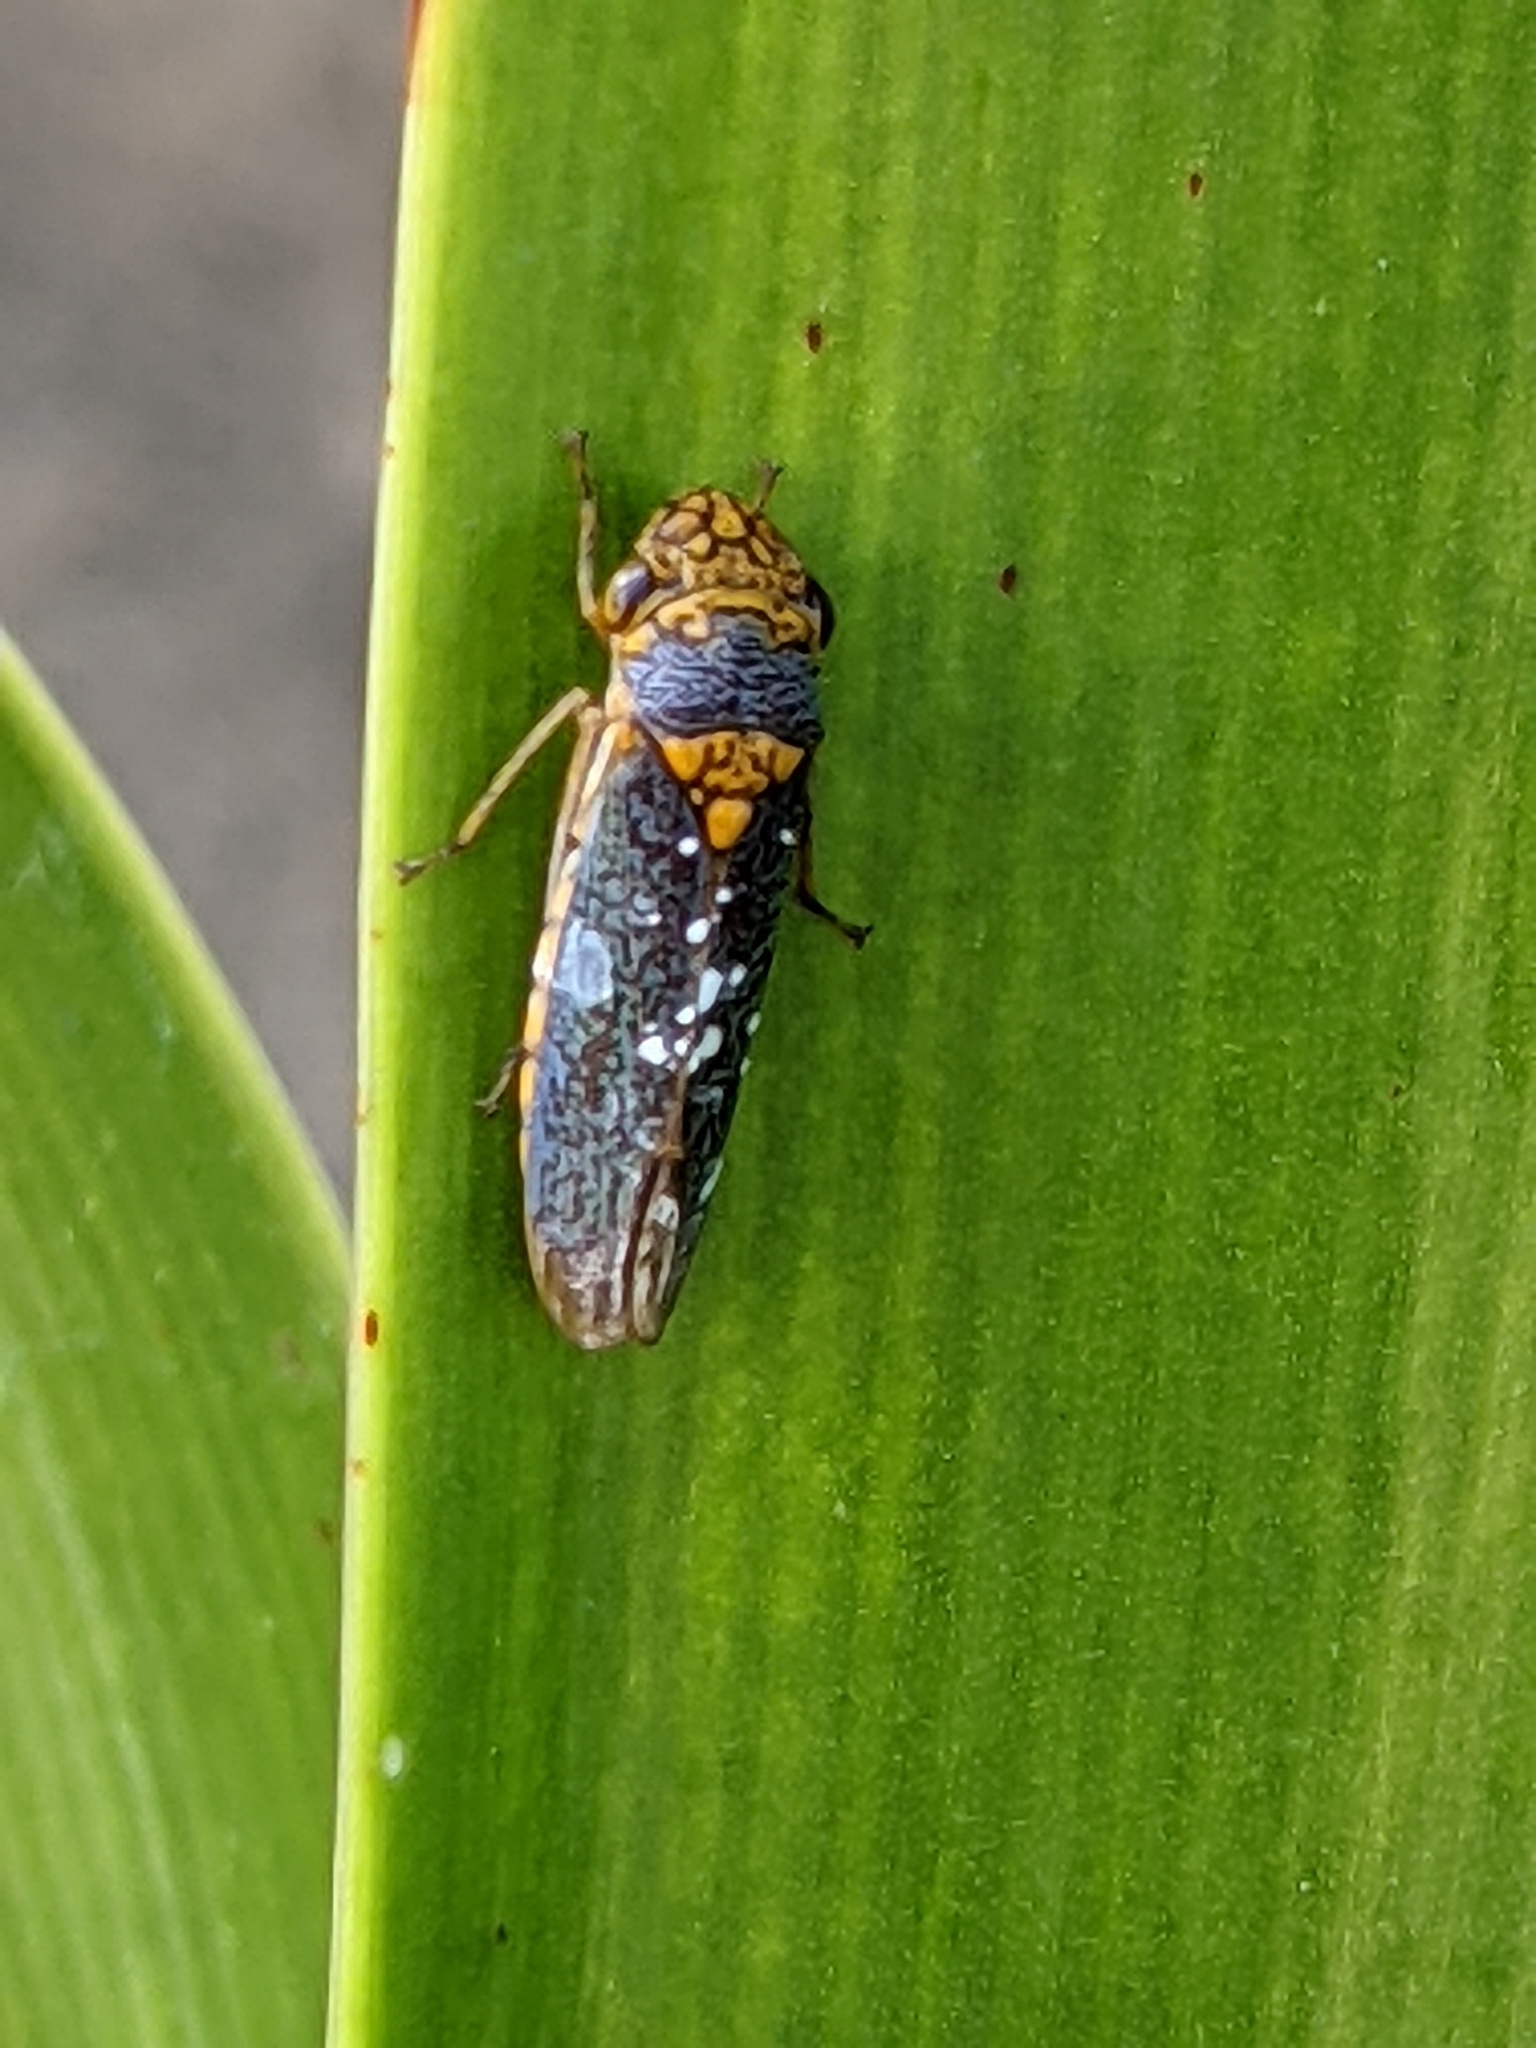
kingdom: Animalia
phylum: Arthropoda
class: Insecta
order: Hemiptera
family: Cicadellidae
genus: Oncometopia
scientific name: Oncometopia orbona
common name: Broad-headed sharpshooter
